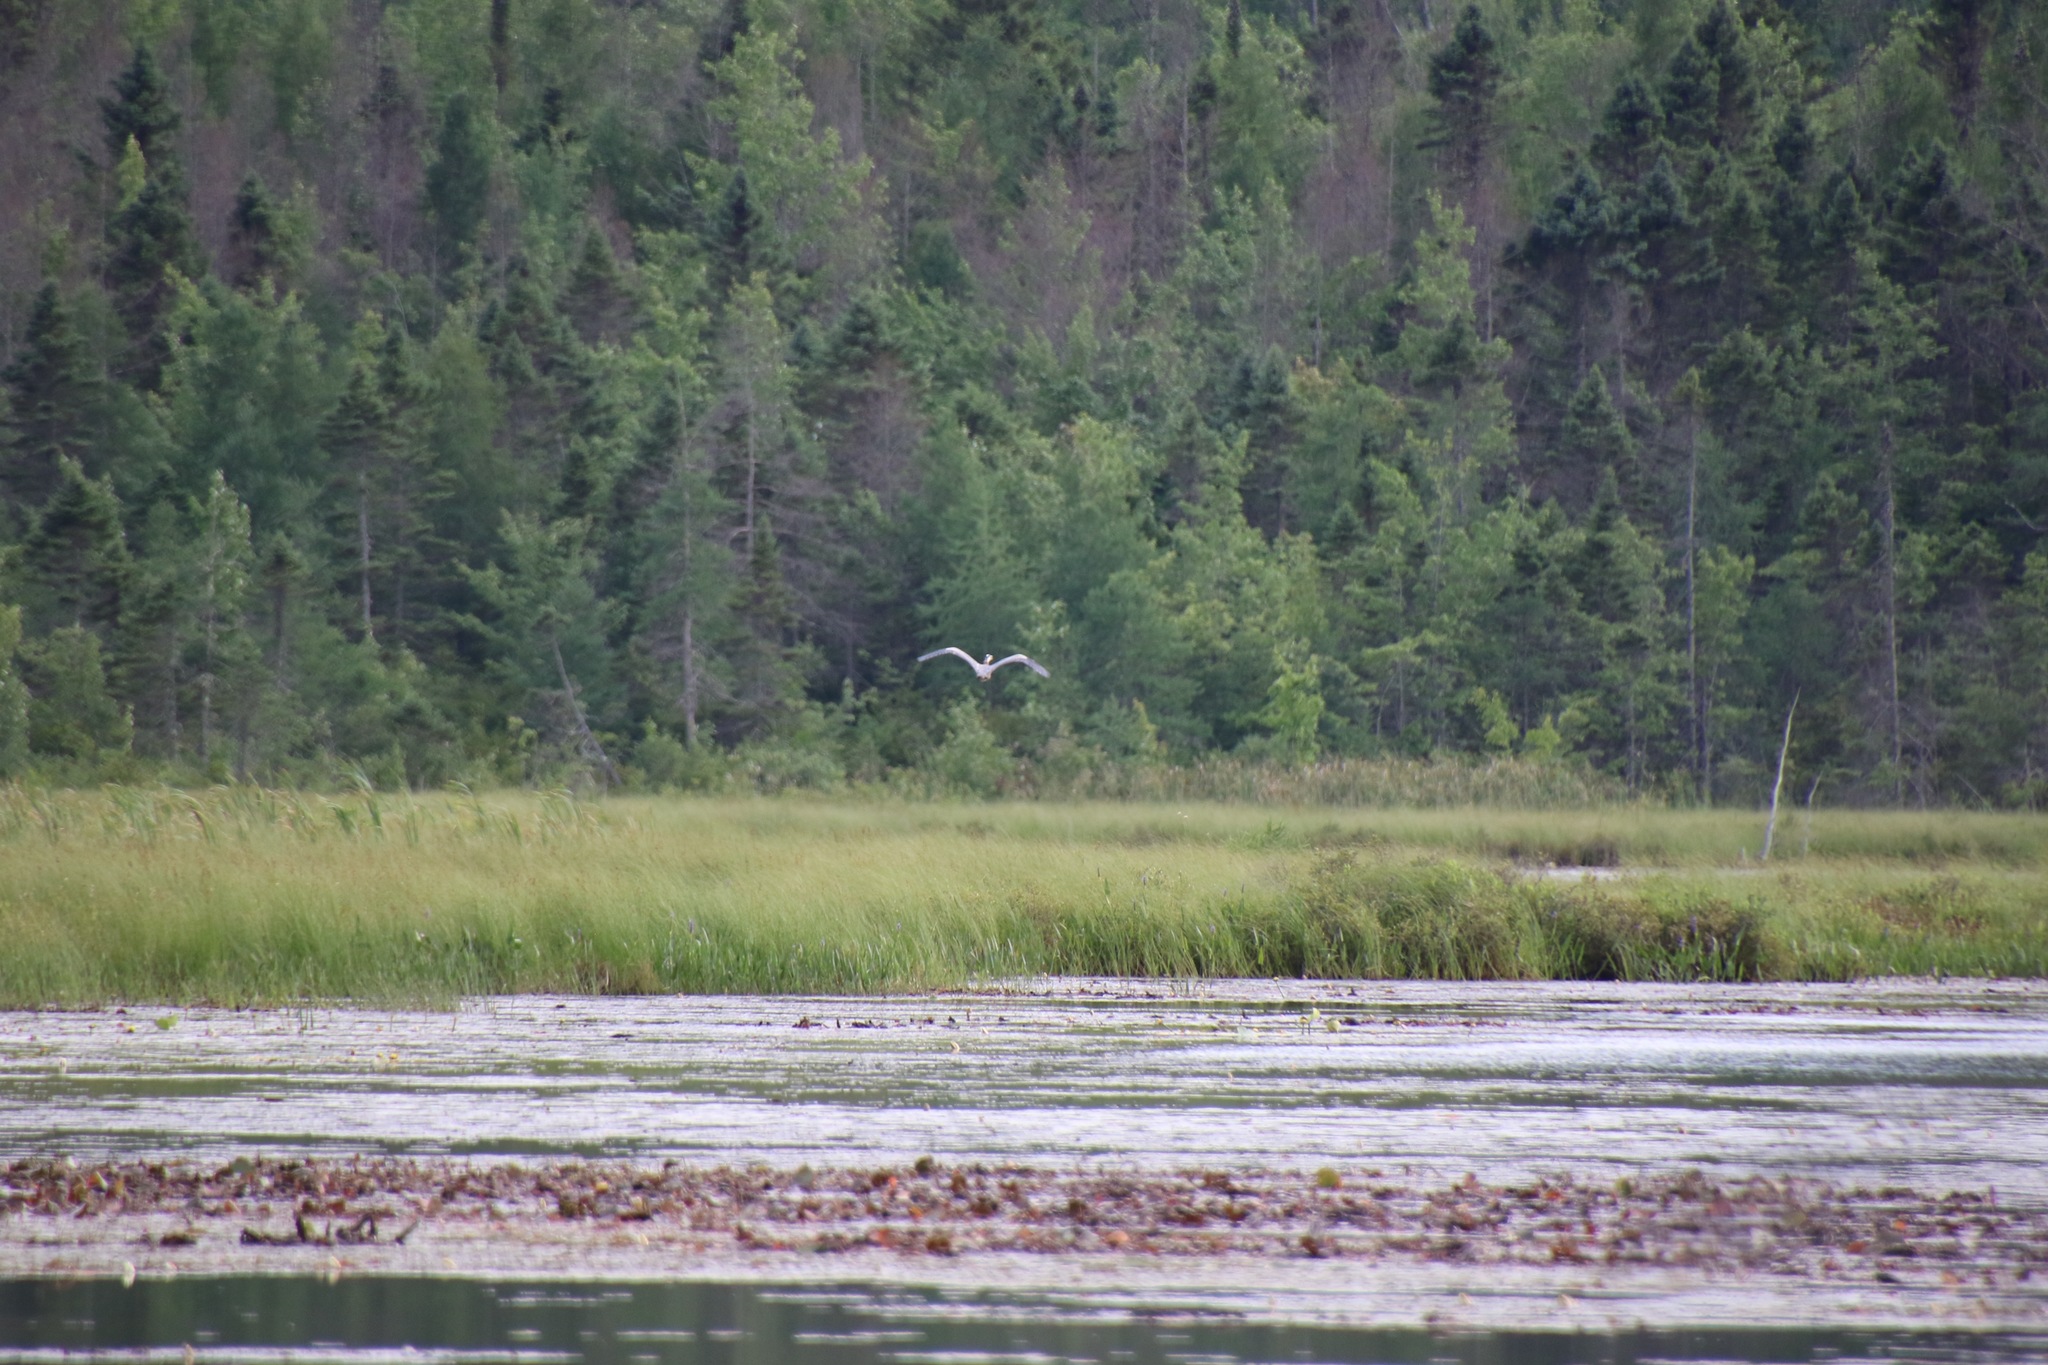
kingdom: Animalia
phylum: Chordata
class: Aves
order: Pelecaniformes
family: Ardeidae
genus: Ardea
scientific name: Ardea herodias
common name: Great blue heron
